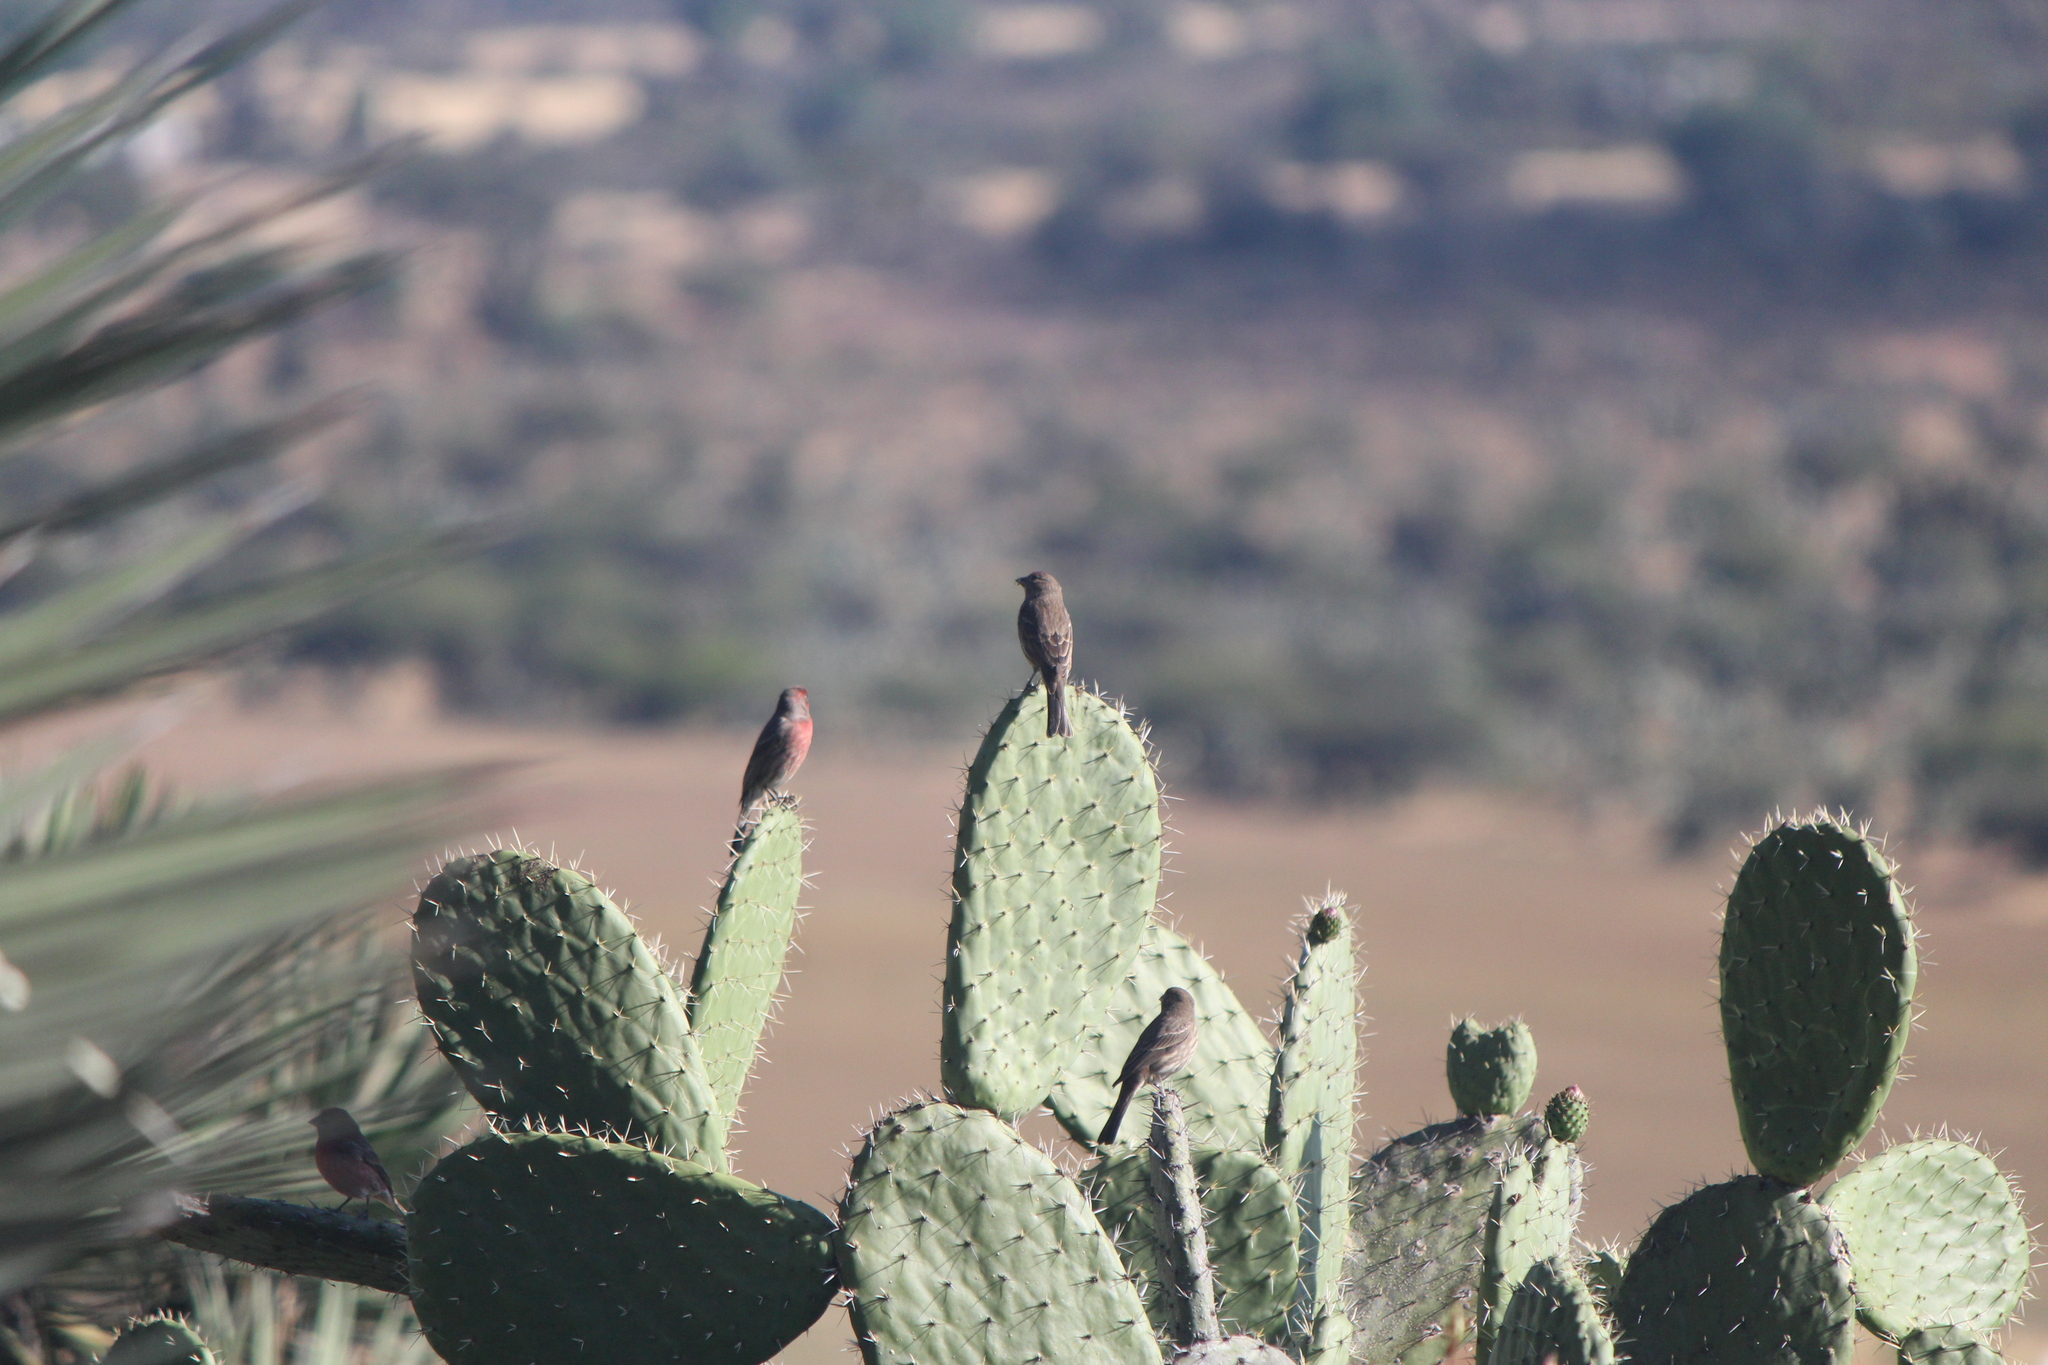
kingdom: Animalia
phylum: Chordata
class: Aves
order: Passeriformes
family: Fringillidae
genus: Haemorhous
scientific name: Haemorhous mexicanus
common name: House finch
